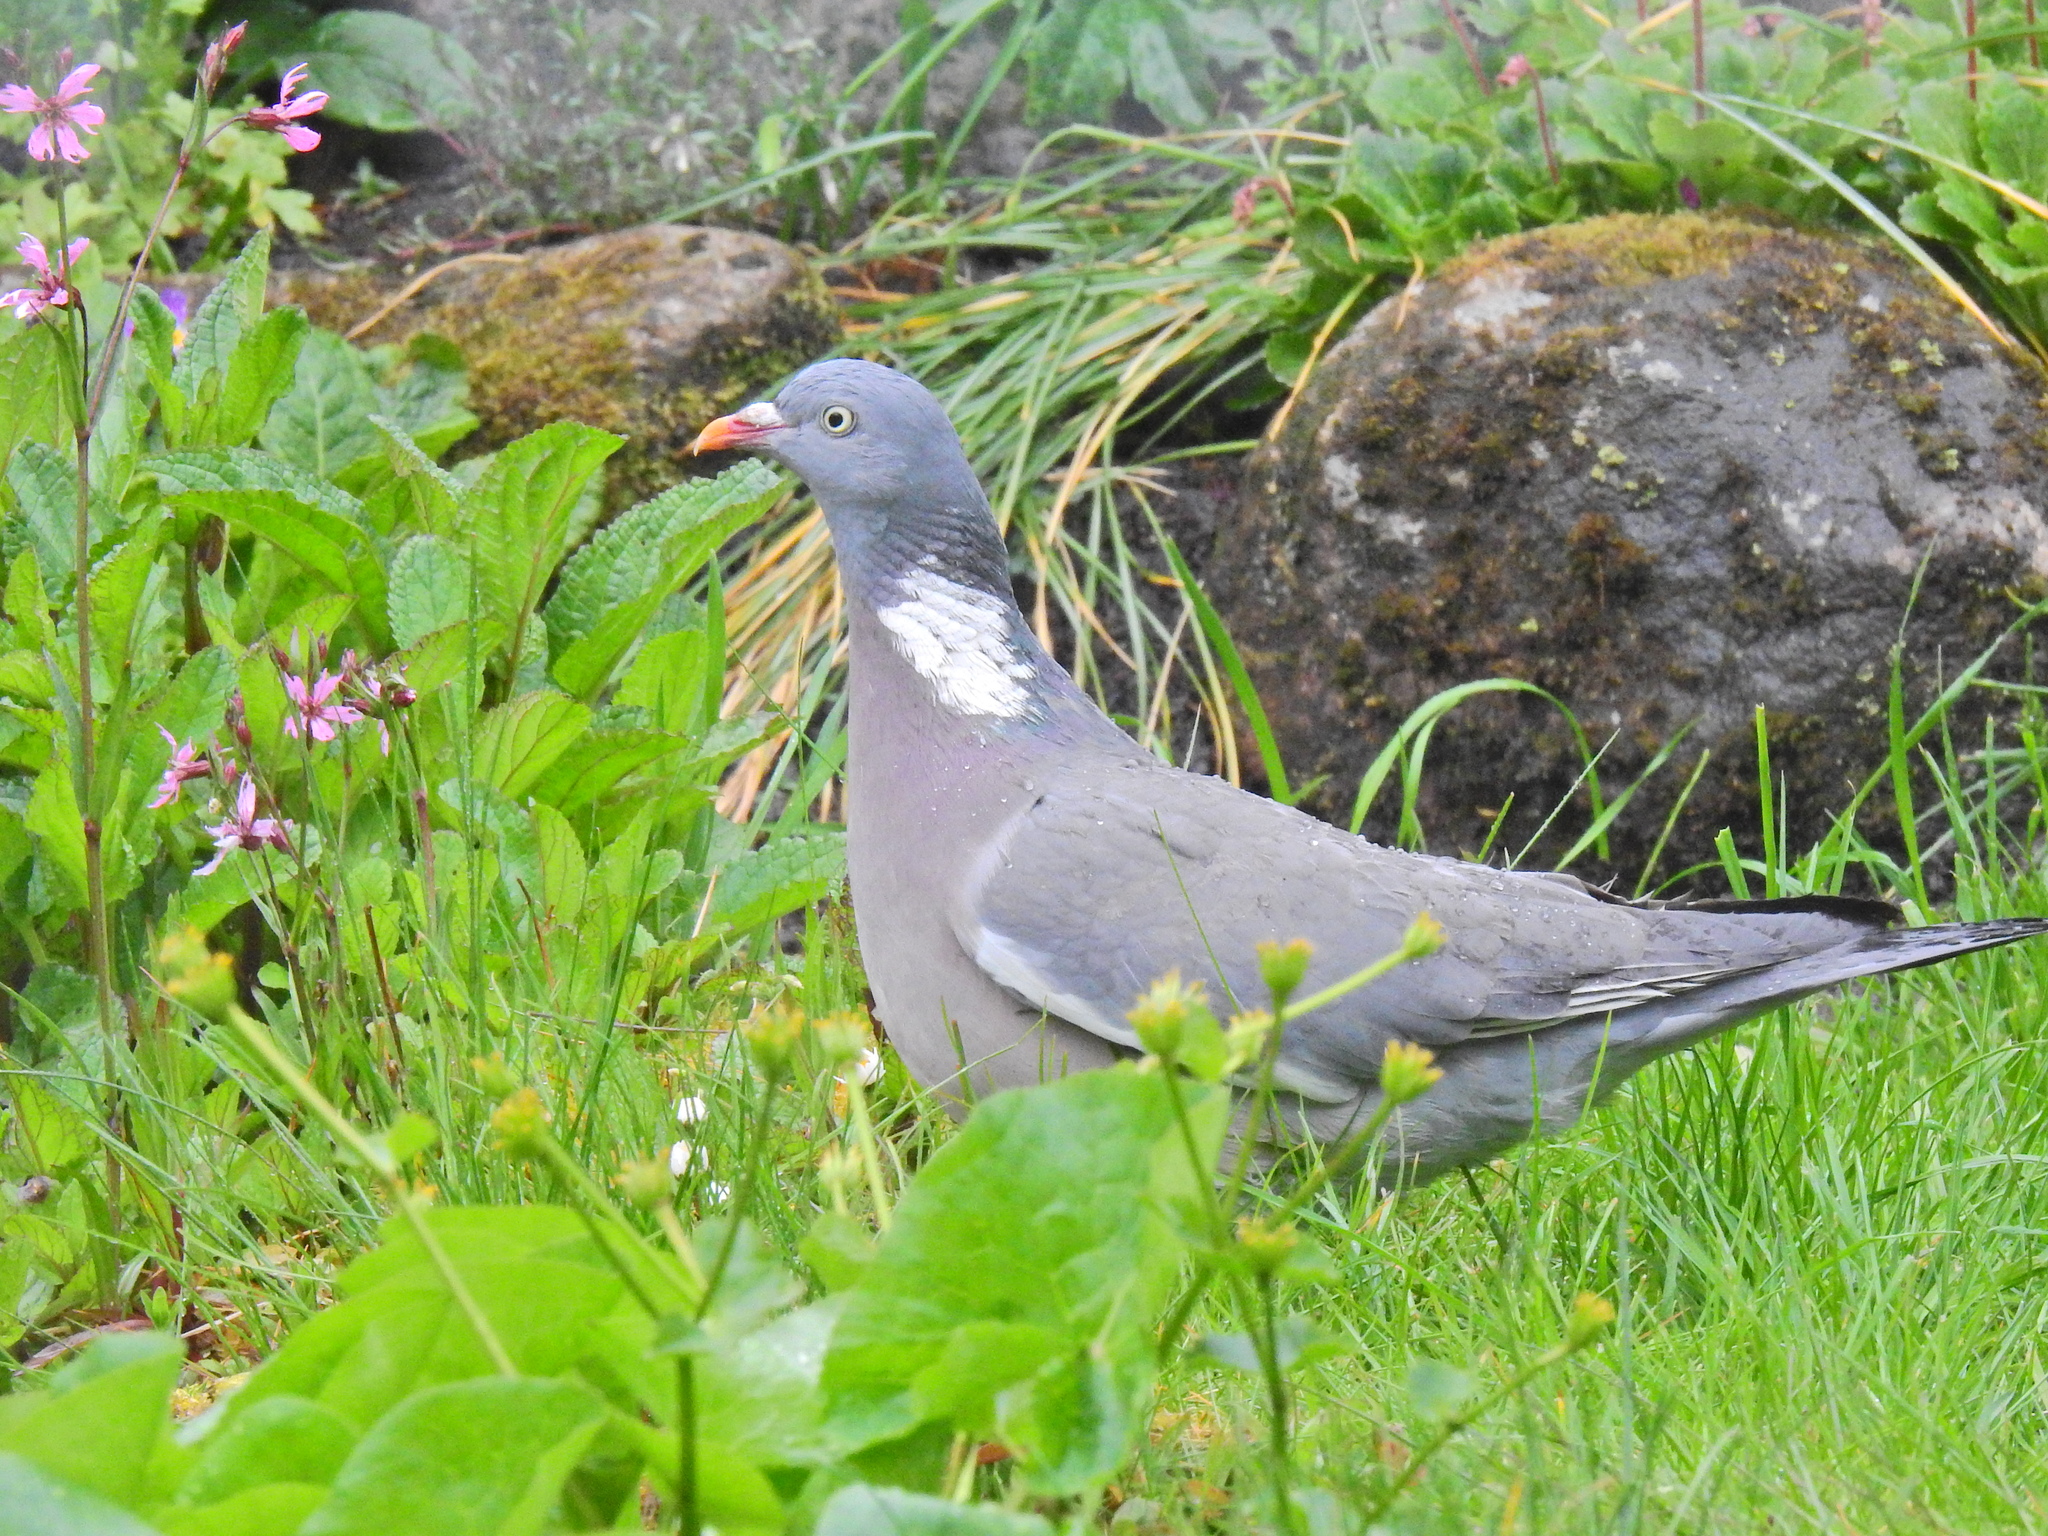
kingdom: Animalia
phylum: Chordata
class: Aves
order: Columbiformes
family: Columbidae
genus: Columba
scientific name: Columba palumbus
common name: Common wood pigeon
